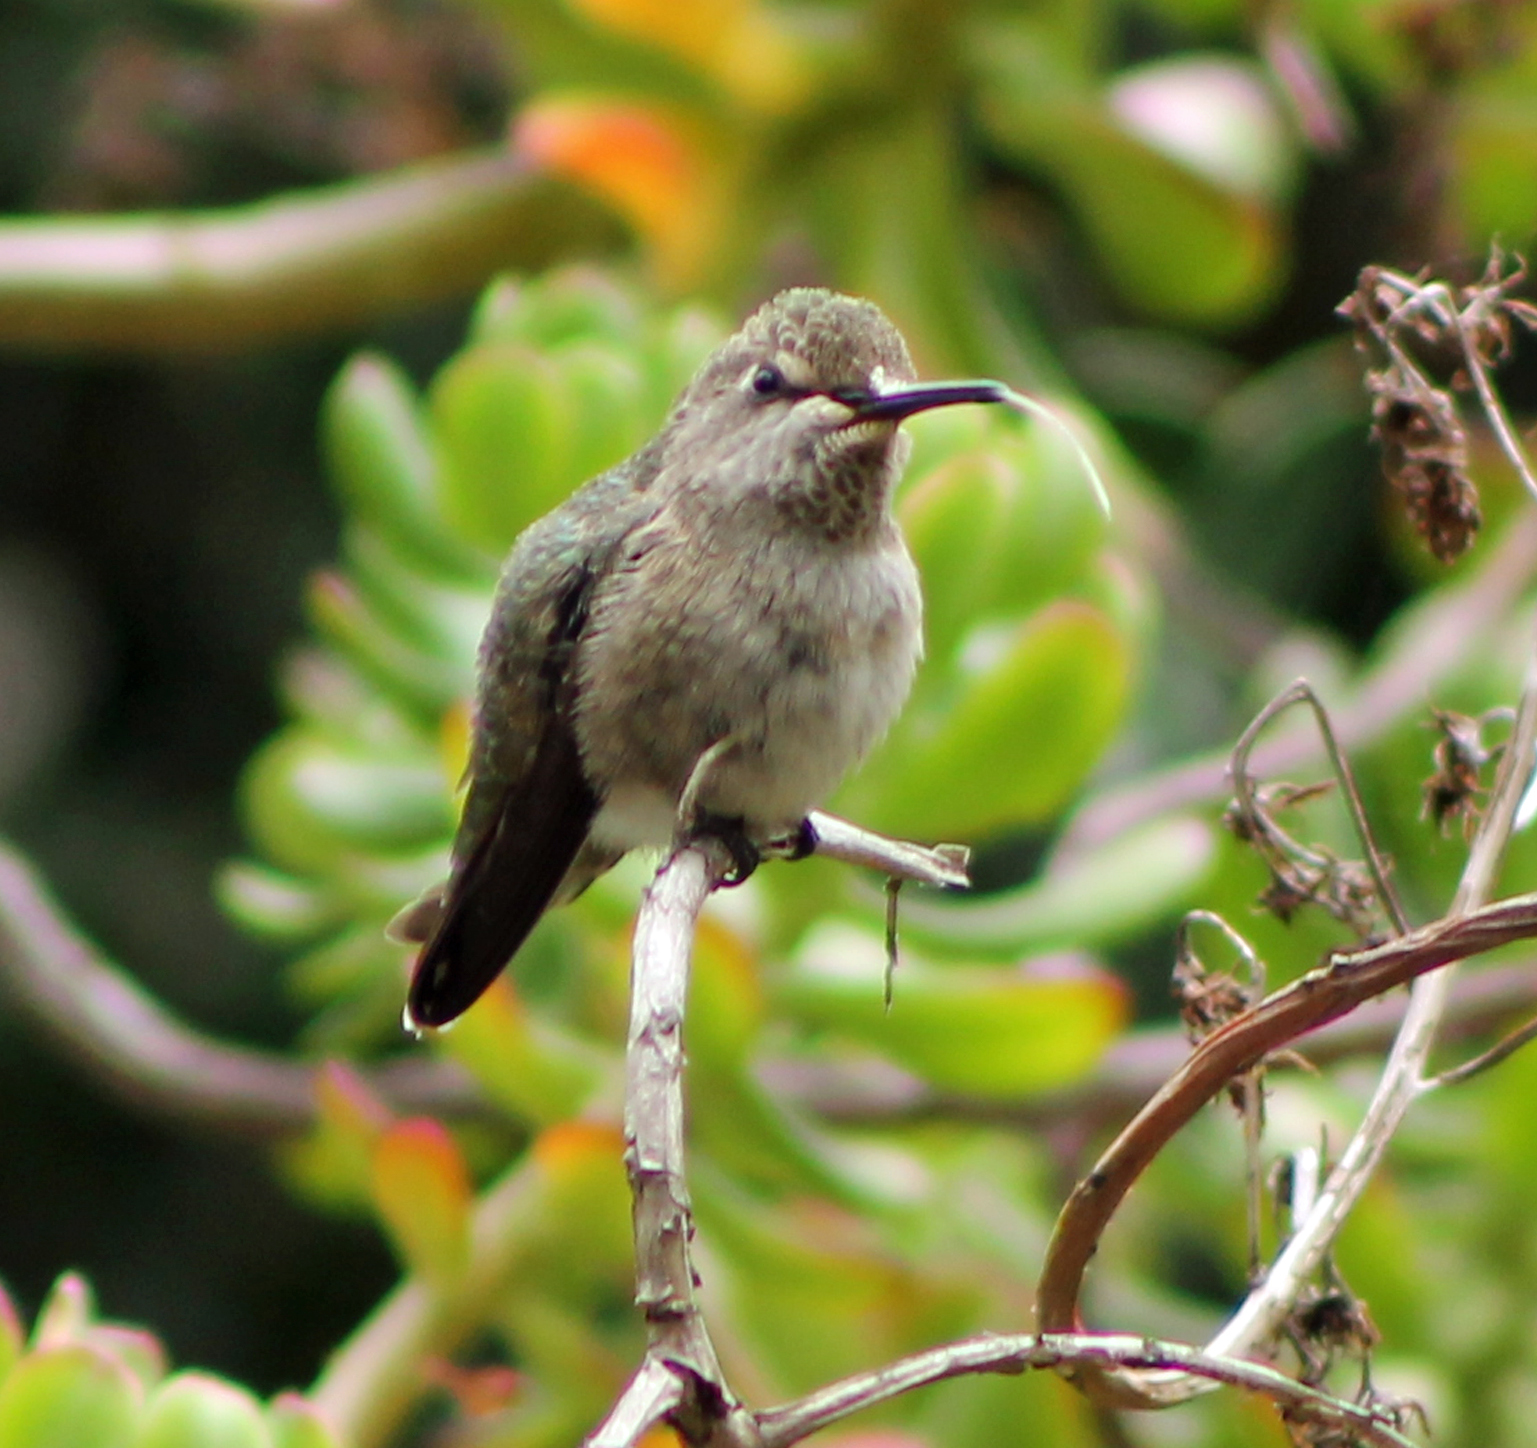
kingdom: Animalia
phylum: Chordata
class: Aves
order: Apodiformes
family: Trochilidae
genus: Calypte
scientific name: Calypte anna
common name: Anna's hummingbird
